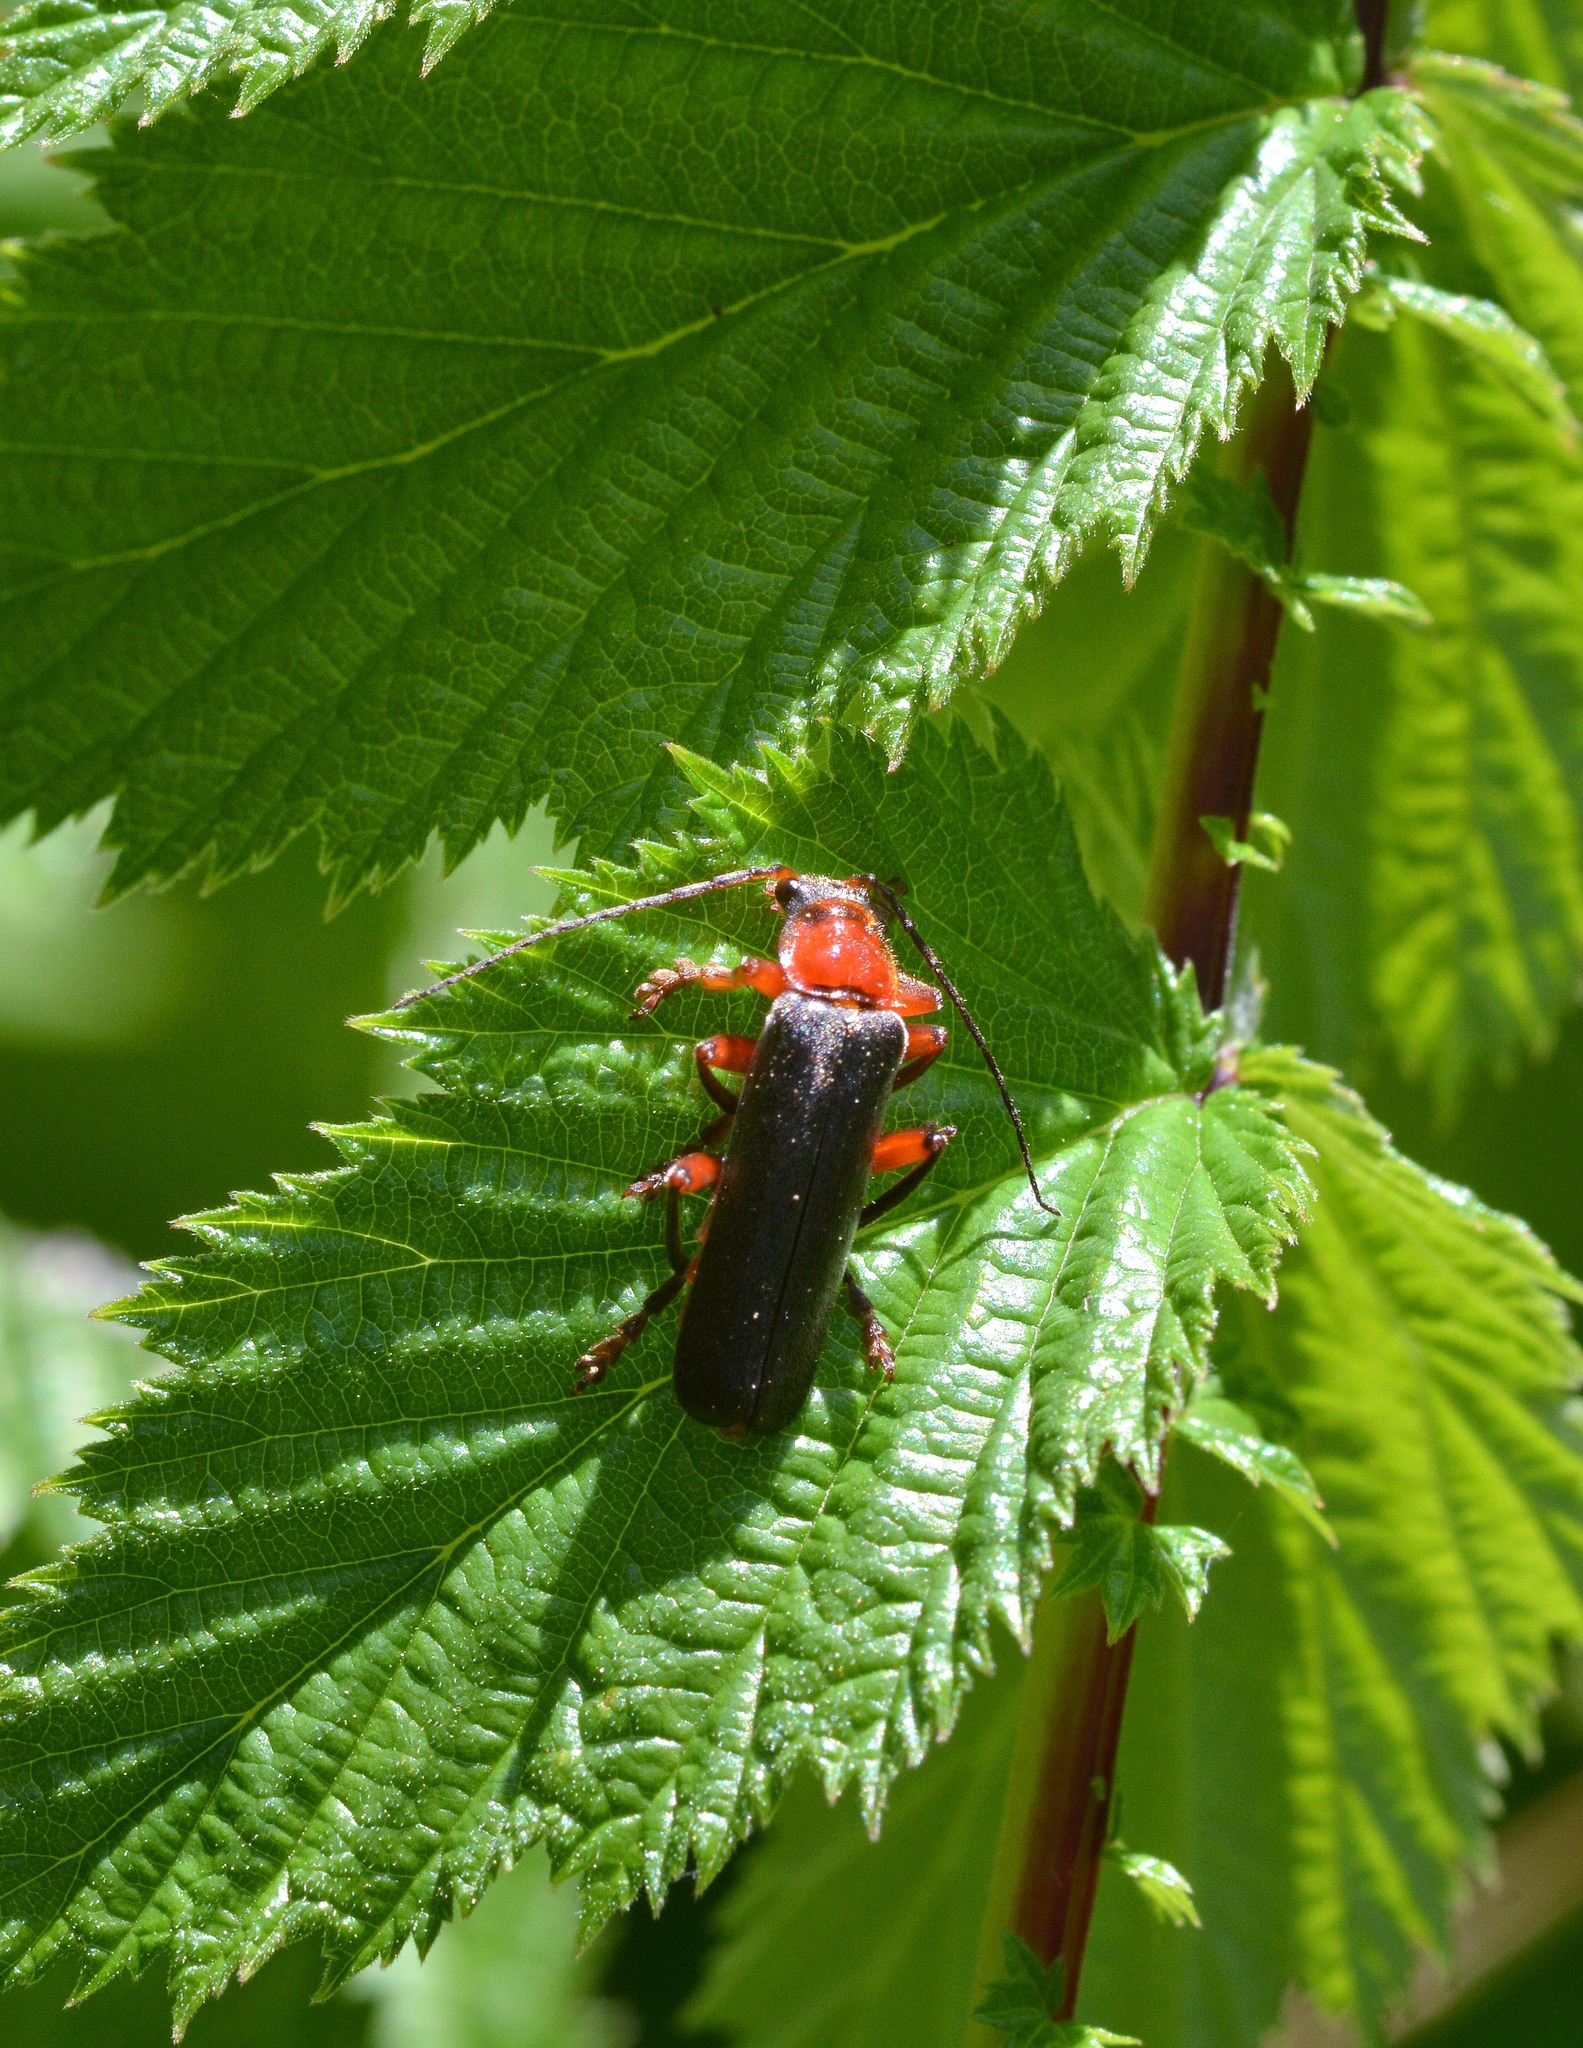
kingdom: Animalia
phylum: Arthropoda
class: Insecta
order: Coleoptera
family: Cantharidae
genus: Cantharis
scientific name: Cantharis pellucida
